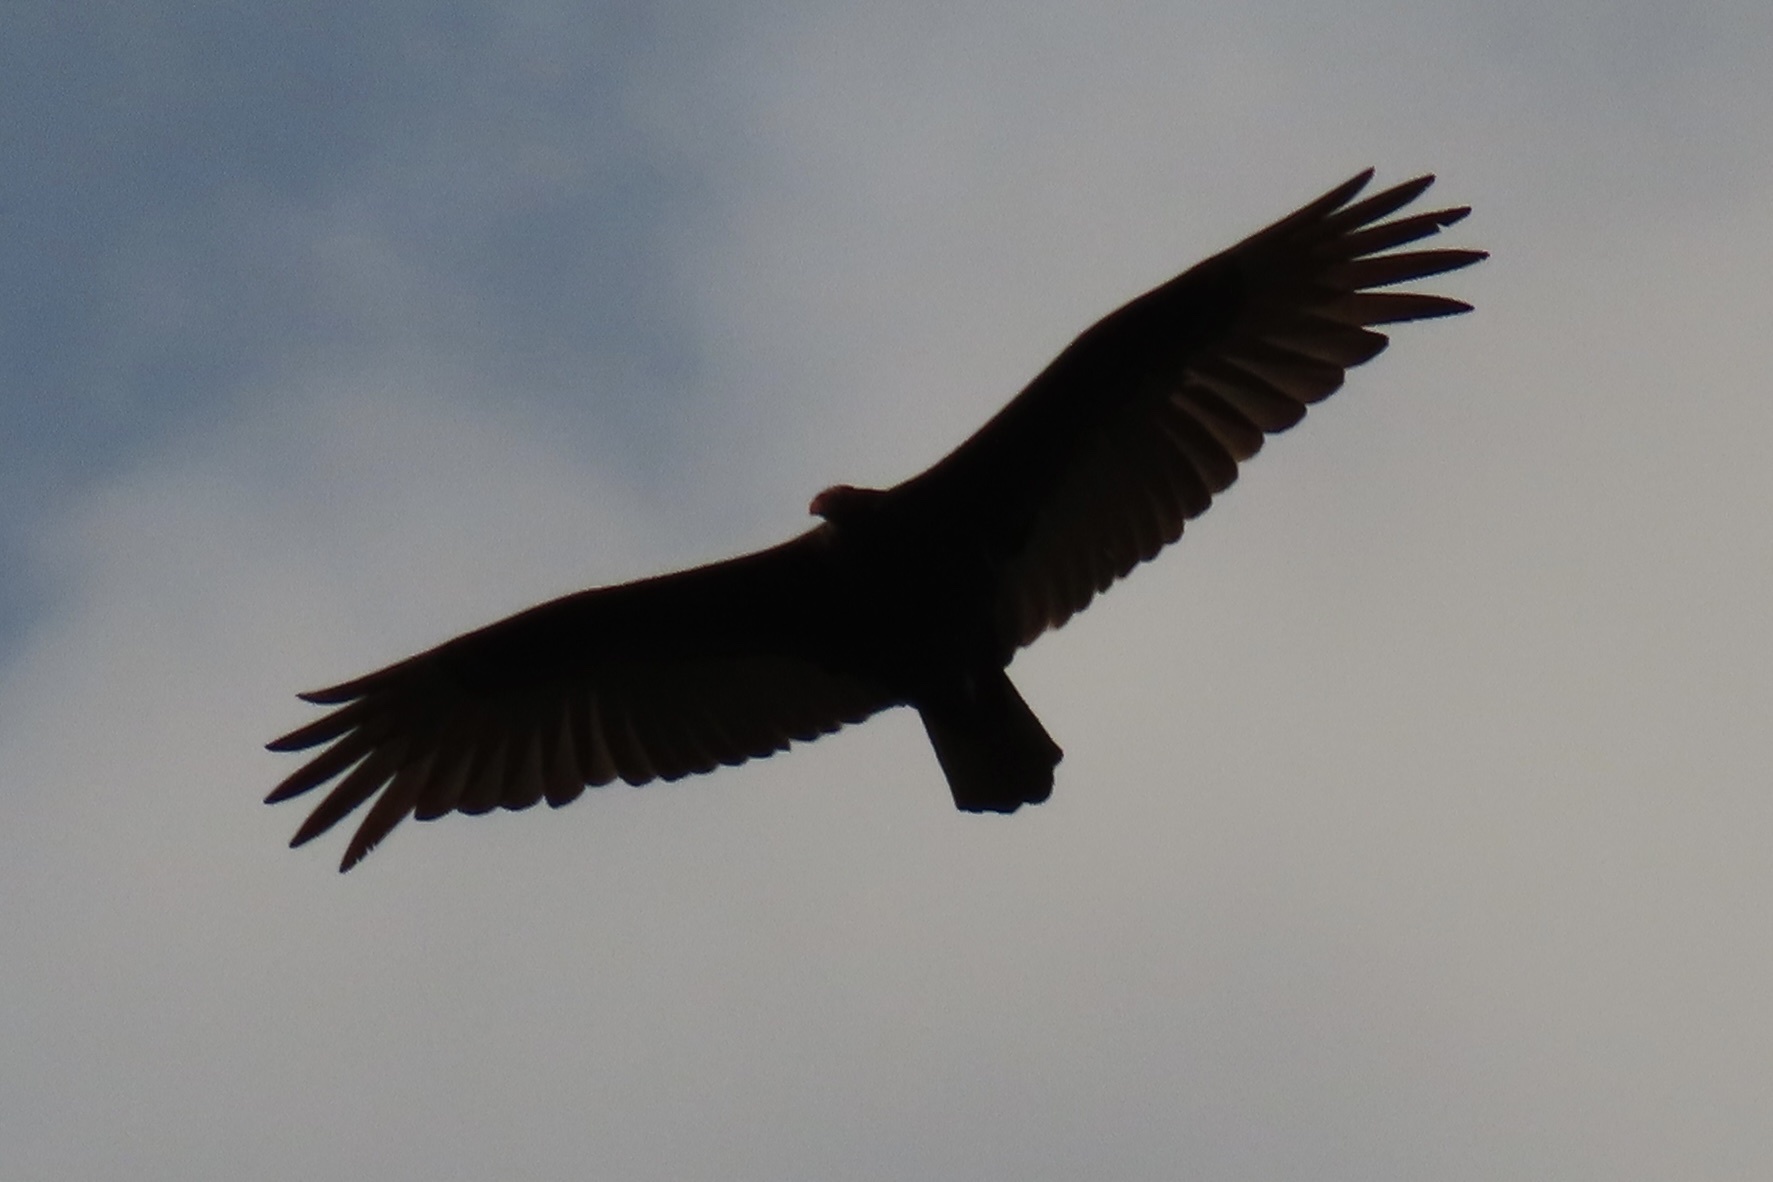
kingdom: Animalia
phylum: Chordata
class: Aves
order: Accipitriformes
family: Cathartidae
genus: Cathartes
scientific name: Cathartes aura
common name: Turkey vulture
